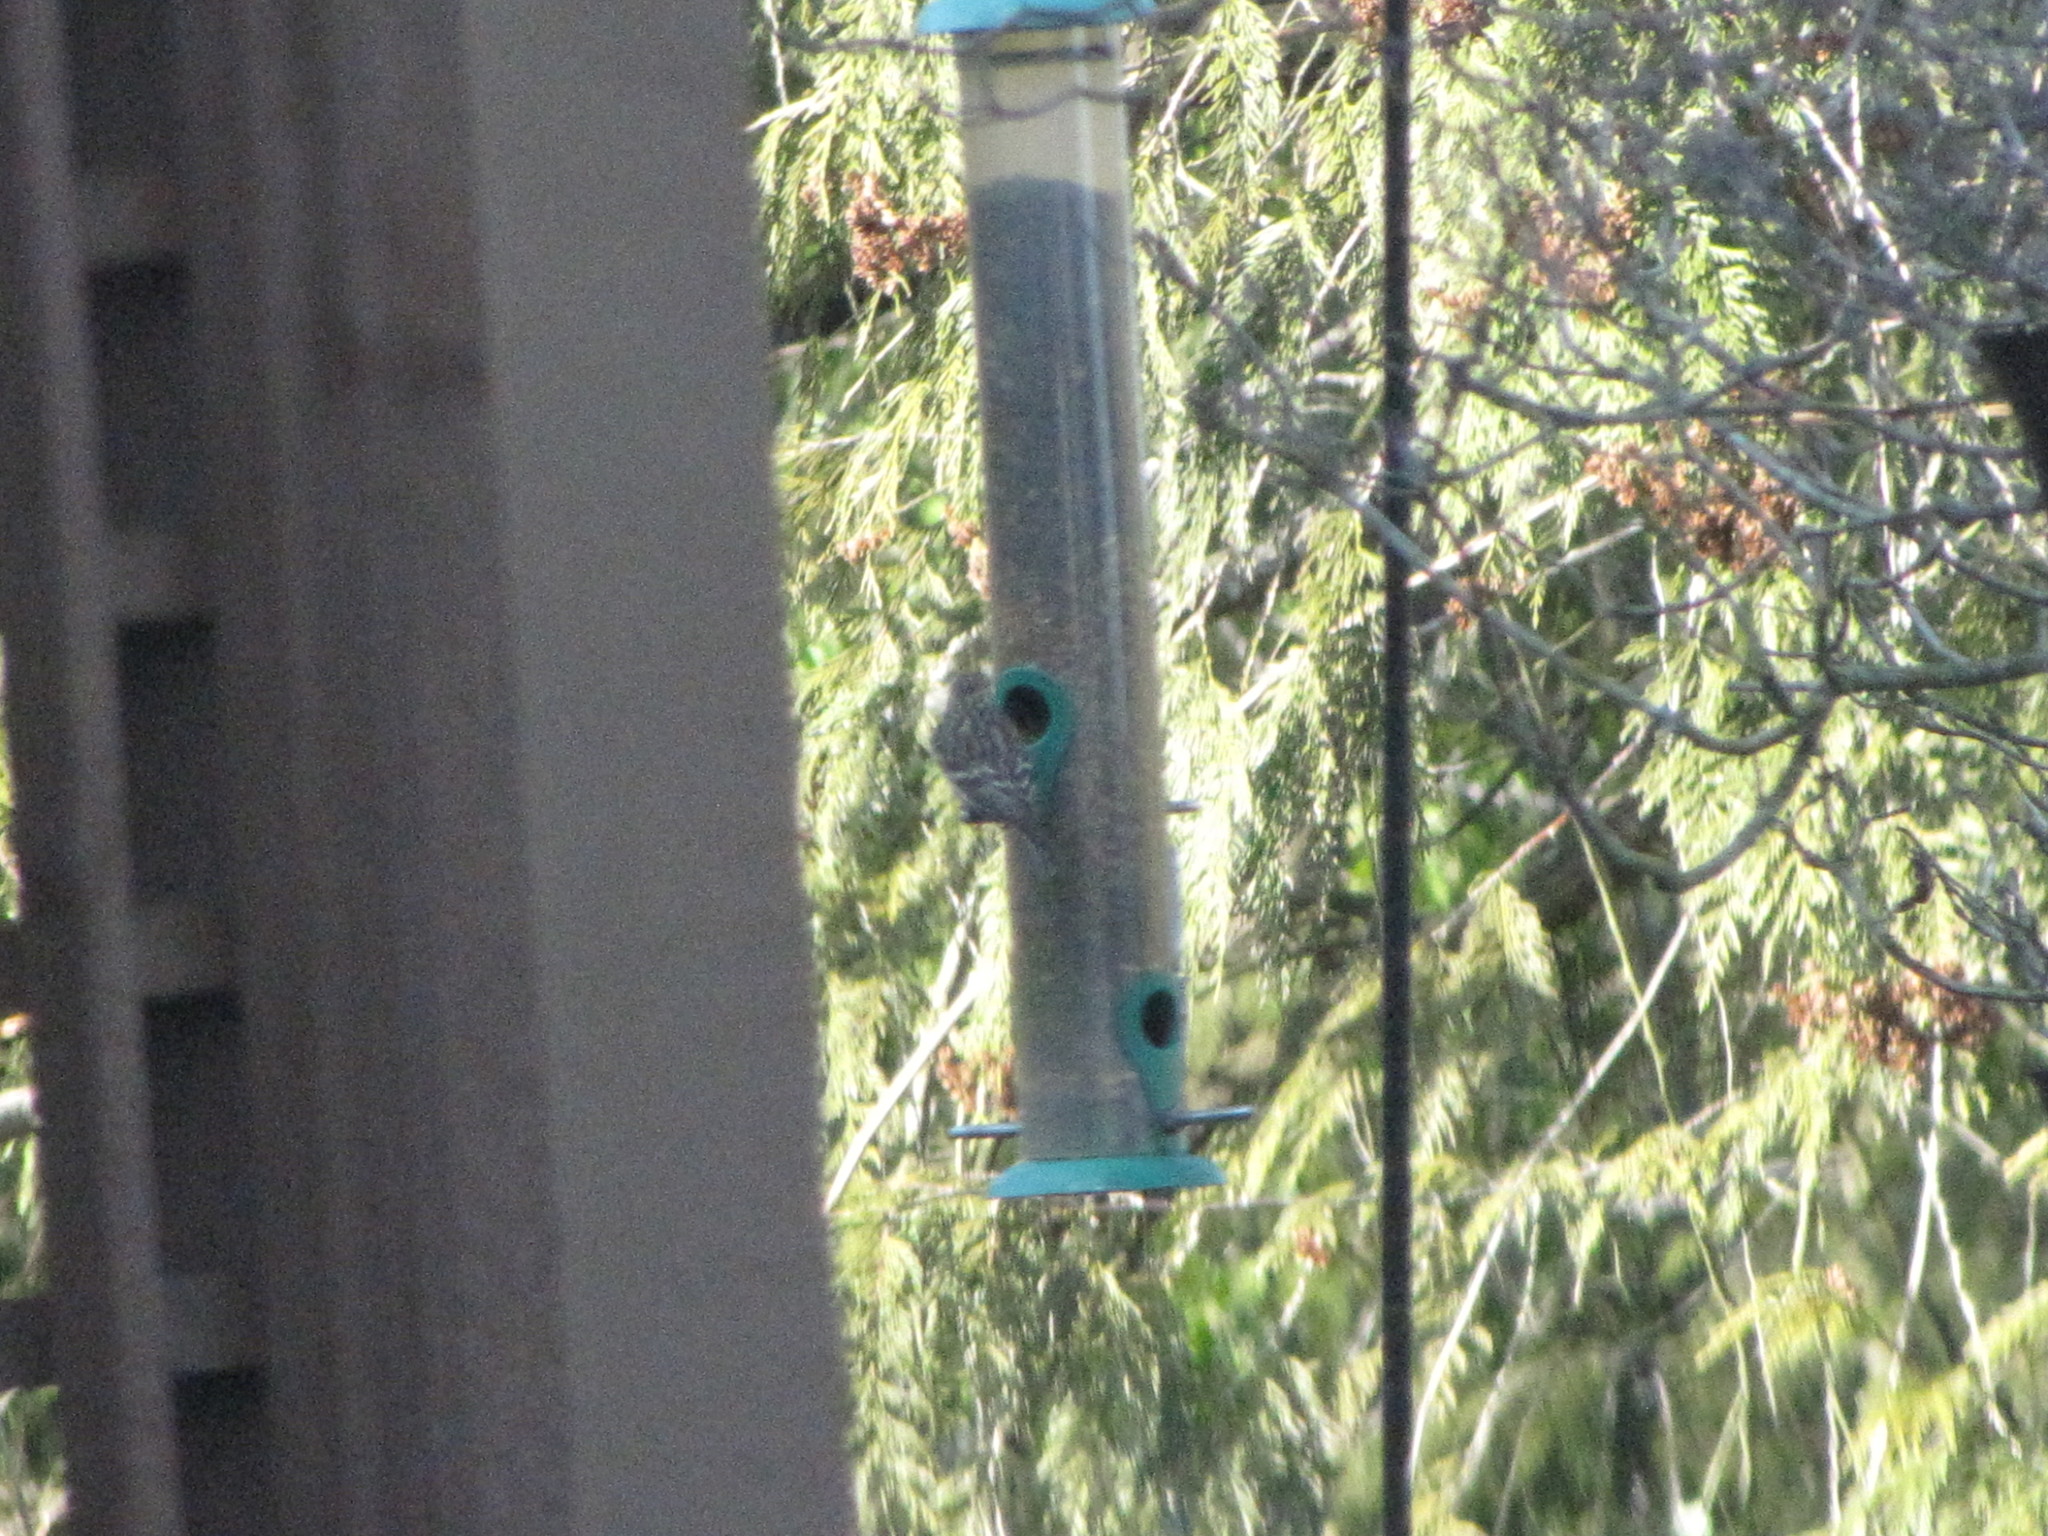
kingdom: Animalia
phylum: Chordata
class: Aves
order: Passeriformes
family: Fringillidae
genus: Spinus
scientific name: Spinus pinus
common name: Pine siskin
